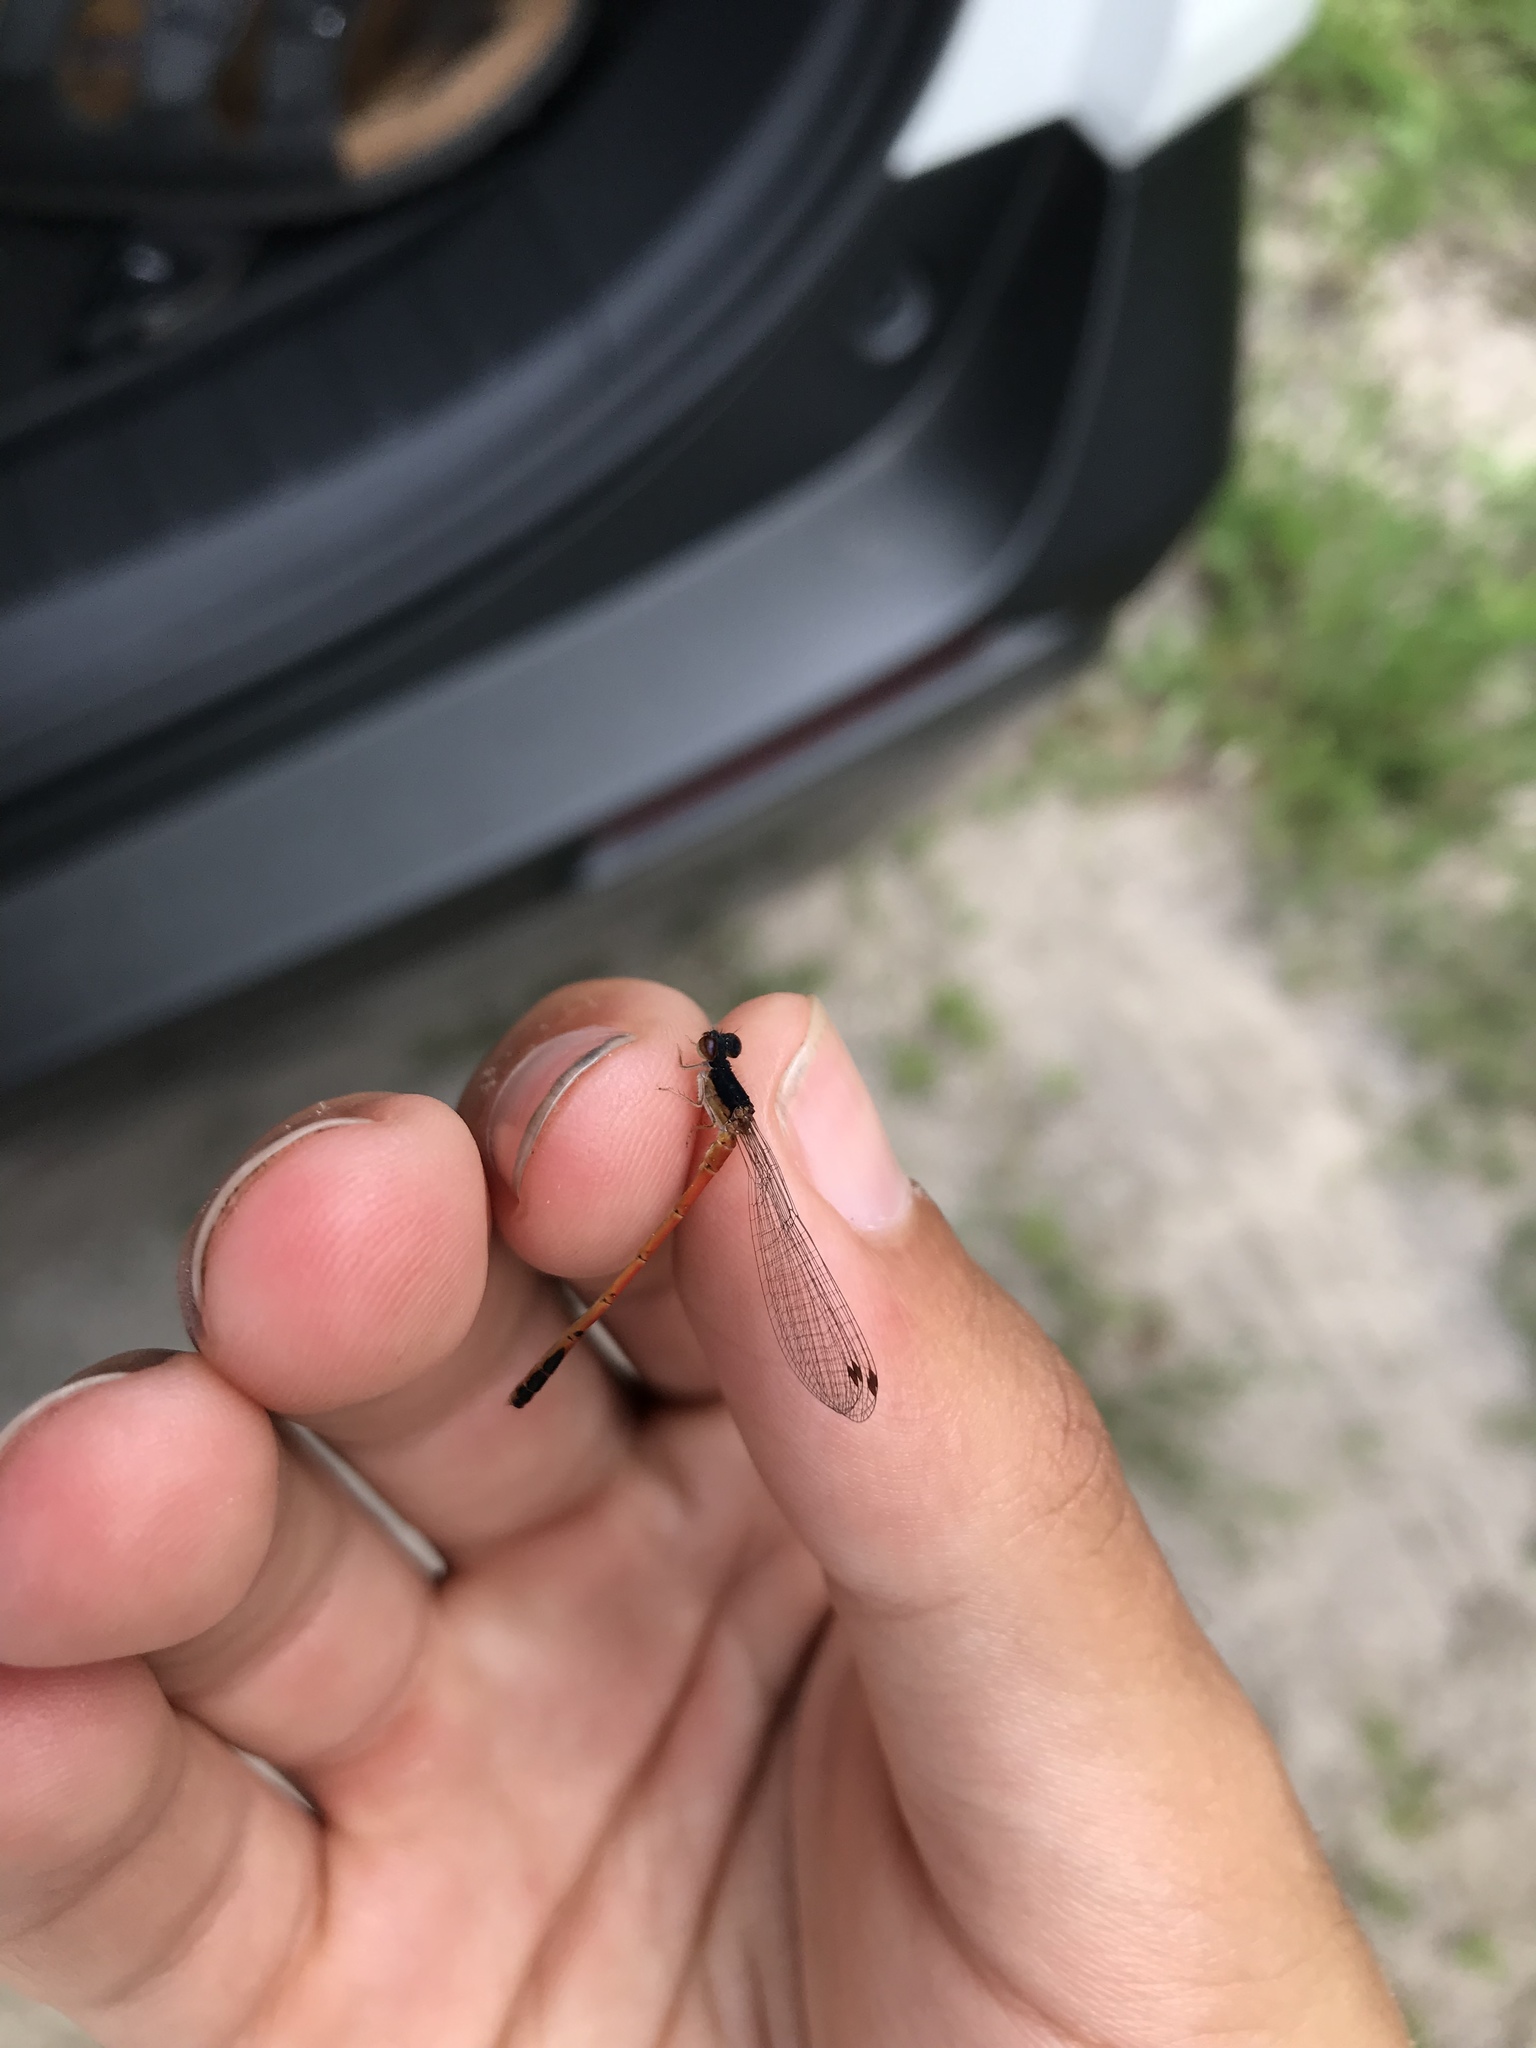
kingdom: Animalia
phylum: Arthropoda
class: Insecta
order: Odonata
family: Coenagrionidae
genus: Amphiagrion
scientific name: Amphiagrion saucium
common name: Eastern red damsel
